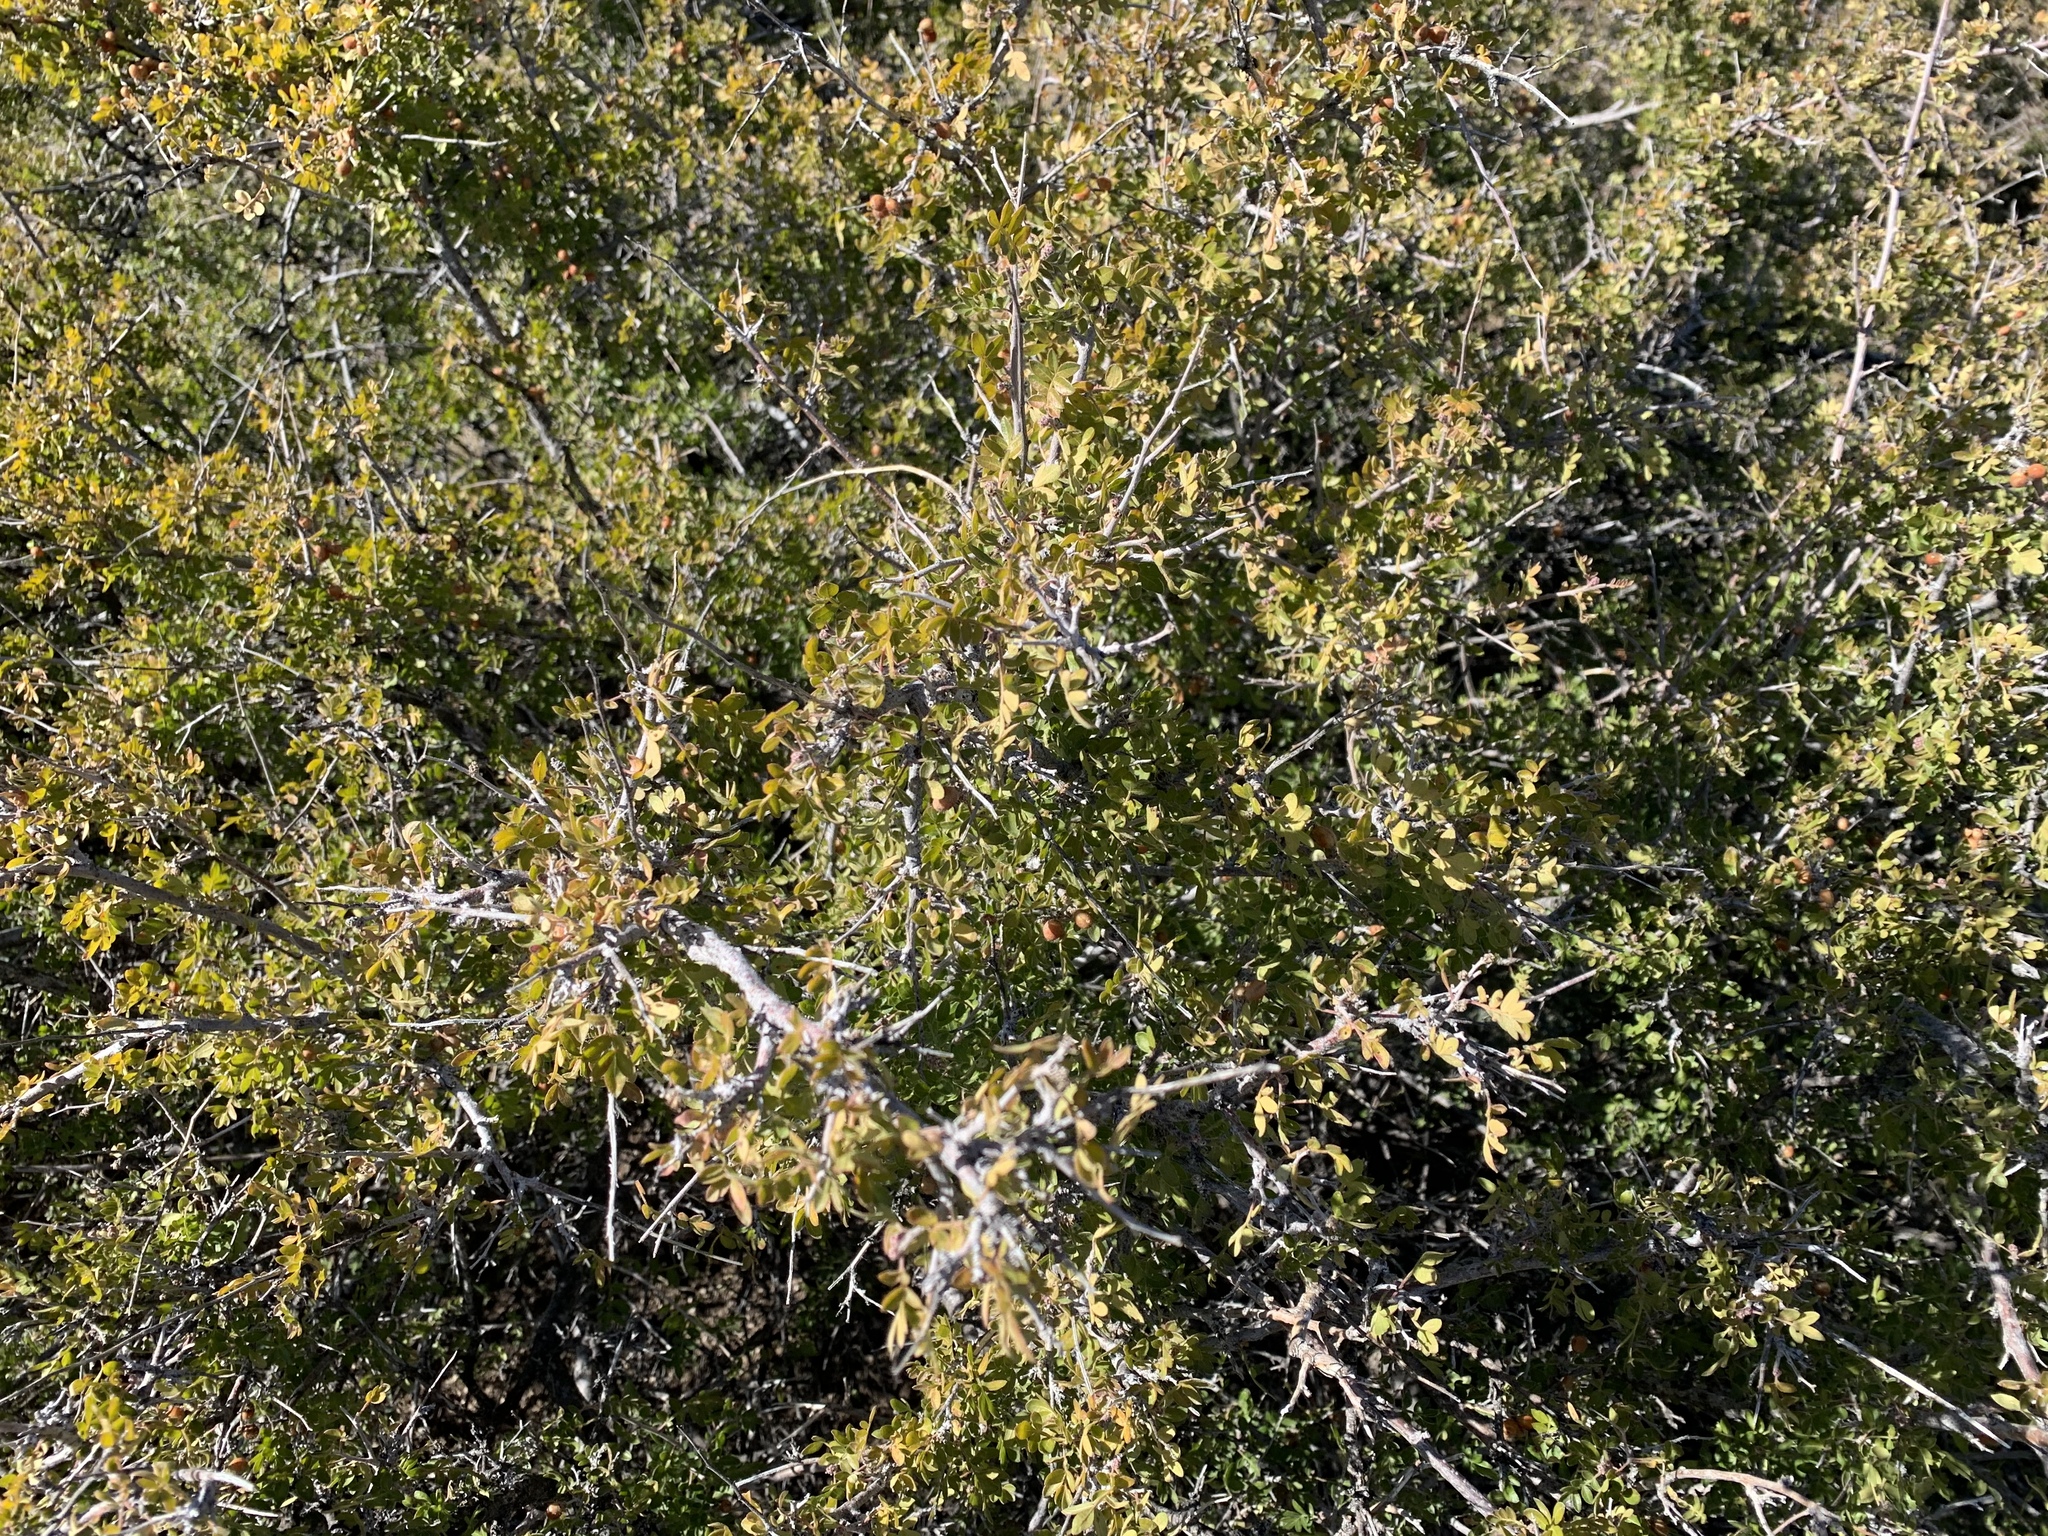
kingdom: Plantae
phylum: Tracheophyta
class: Magnoliopsida
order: Sapindales
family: Anacardiaceae
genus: Rhus
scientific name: Rhus microphylla
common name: Desert sumac
